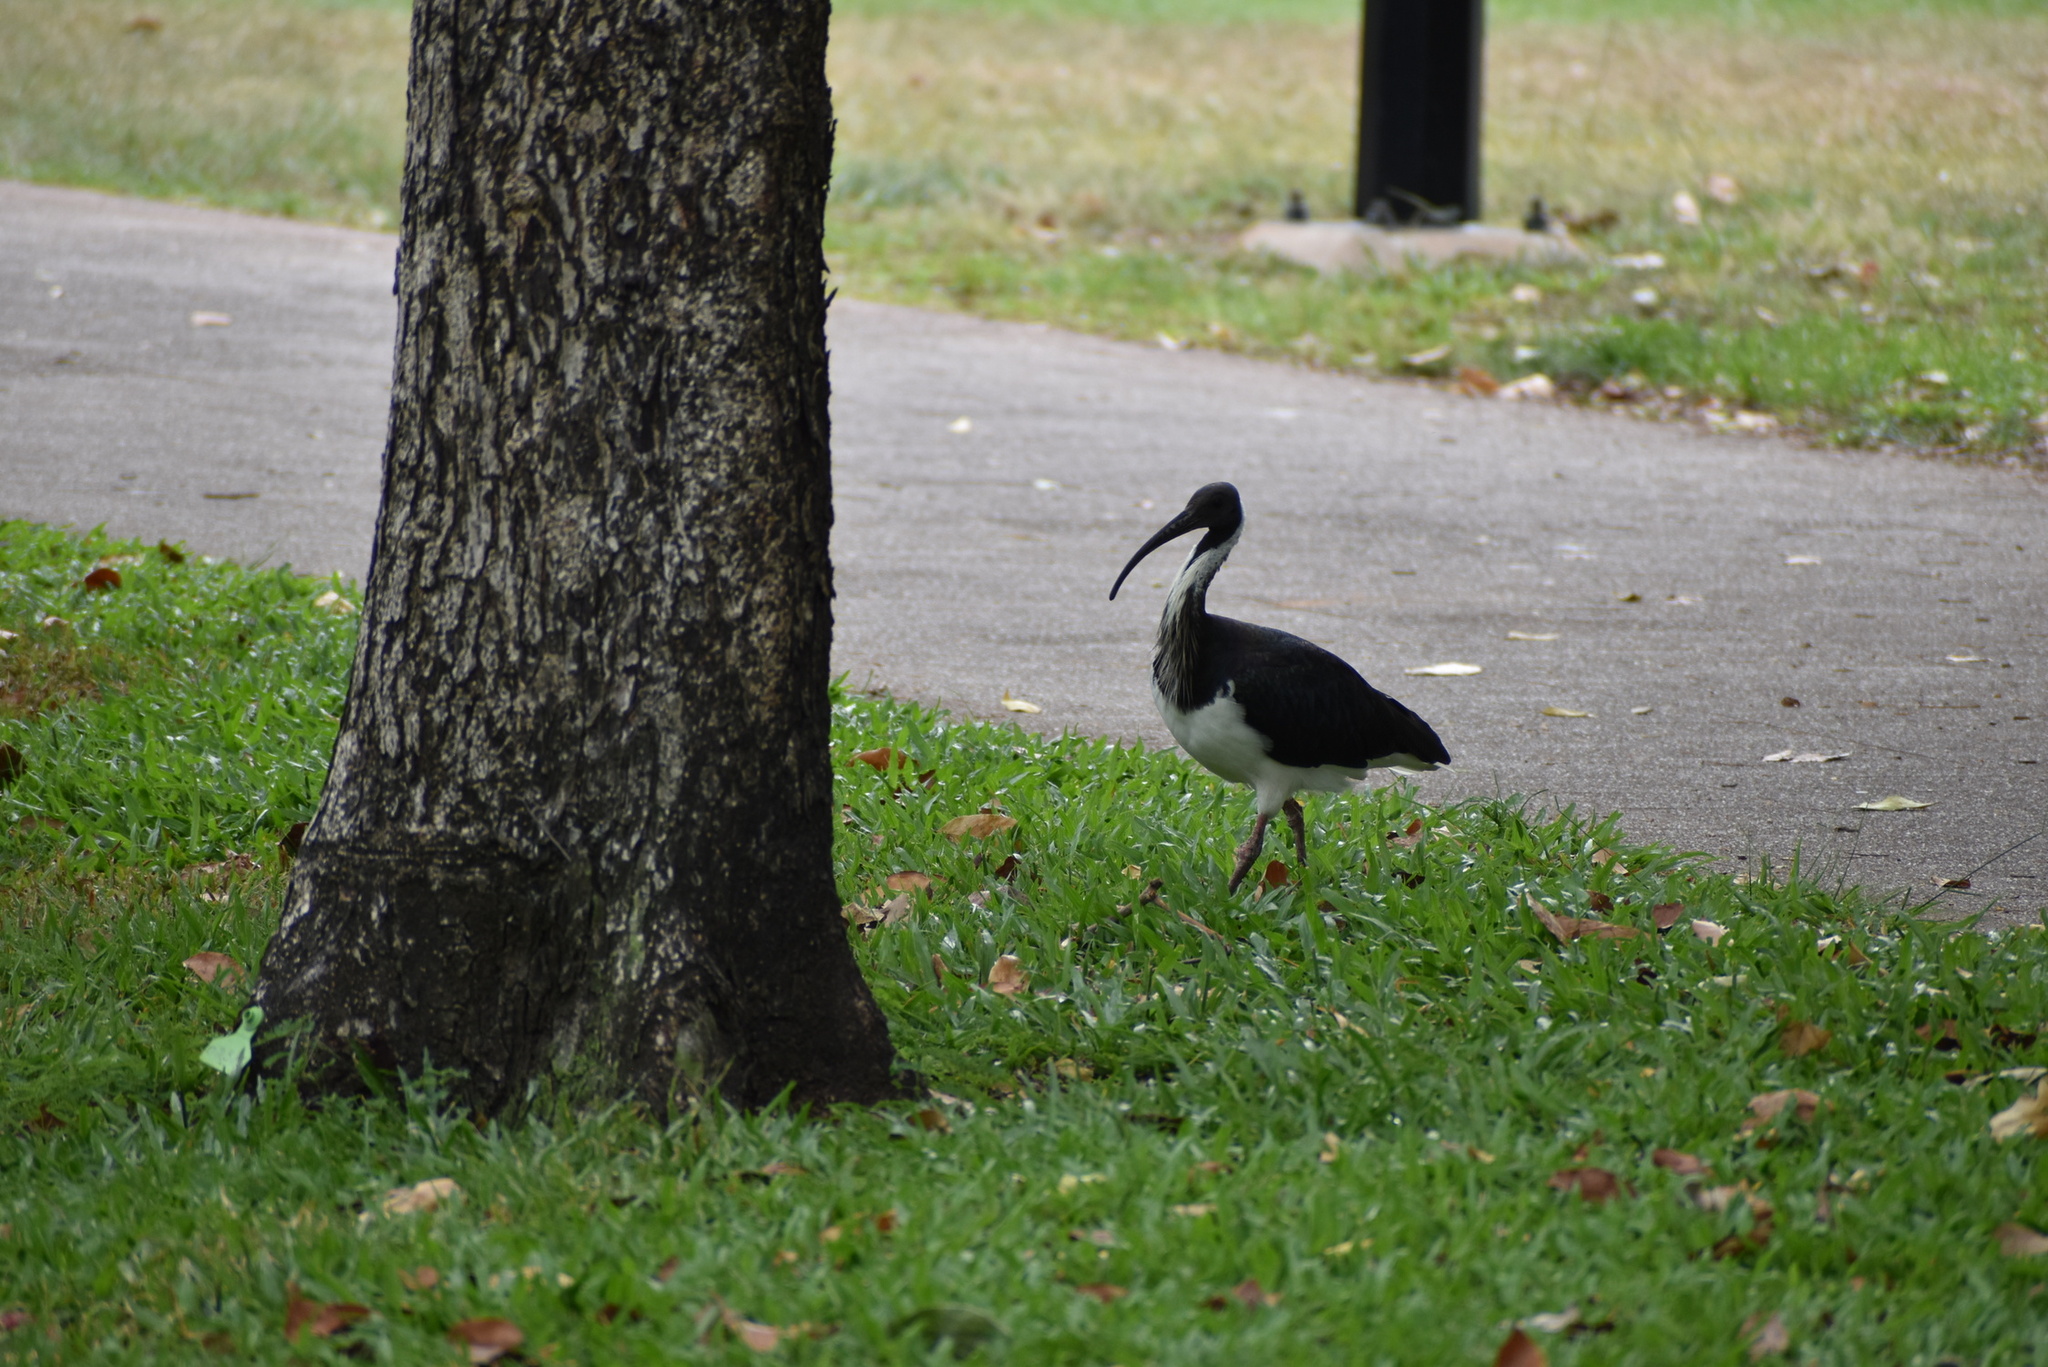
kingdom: Animalia
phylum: Chordata
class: Aves
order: Pelecaniformes
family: Threskiornithidae
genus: Threskiornis
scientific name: Threskiornis spinicollis
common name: Straw-necked ibis
